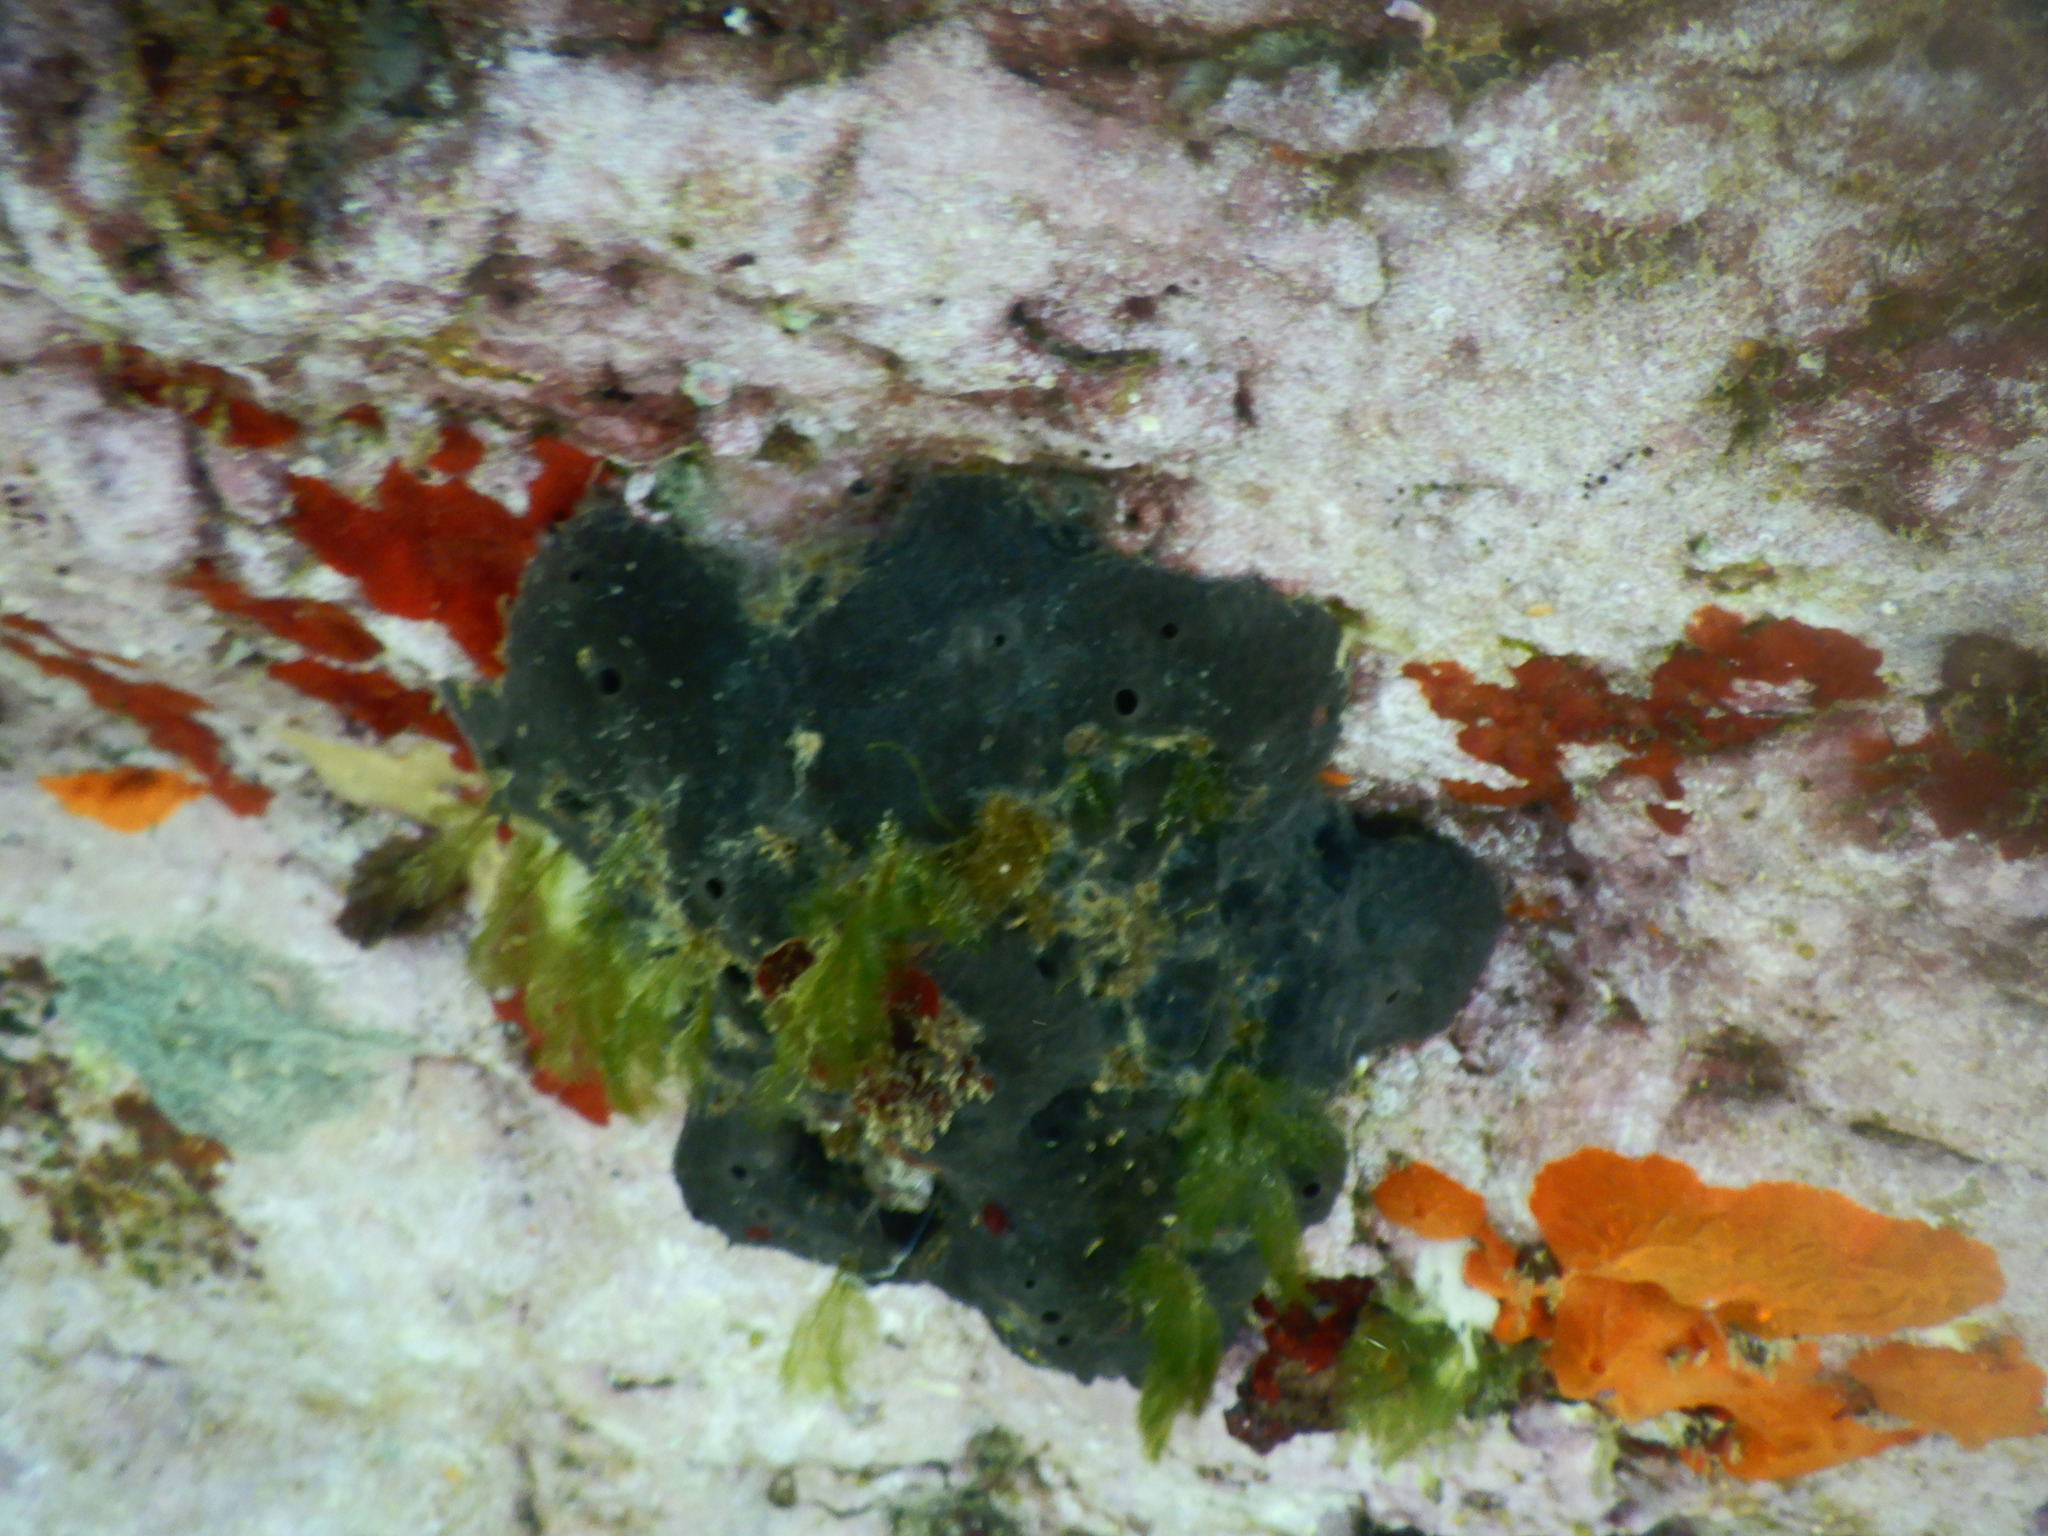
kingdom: Animalia
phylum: Porifera
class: Demospongiae
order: Dictyoceratida
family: Irciniidae
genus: Sarcotragus
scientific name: Sarcotragus spinosulus
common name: Black leather sponge
